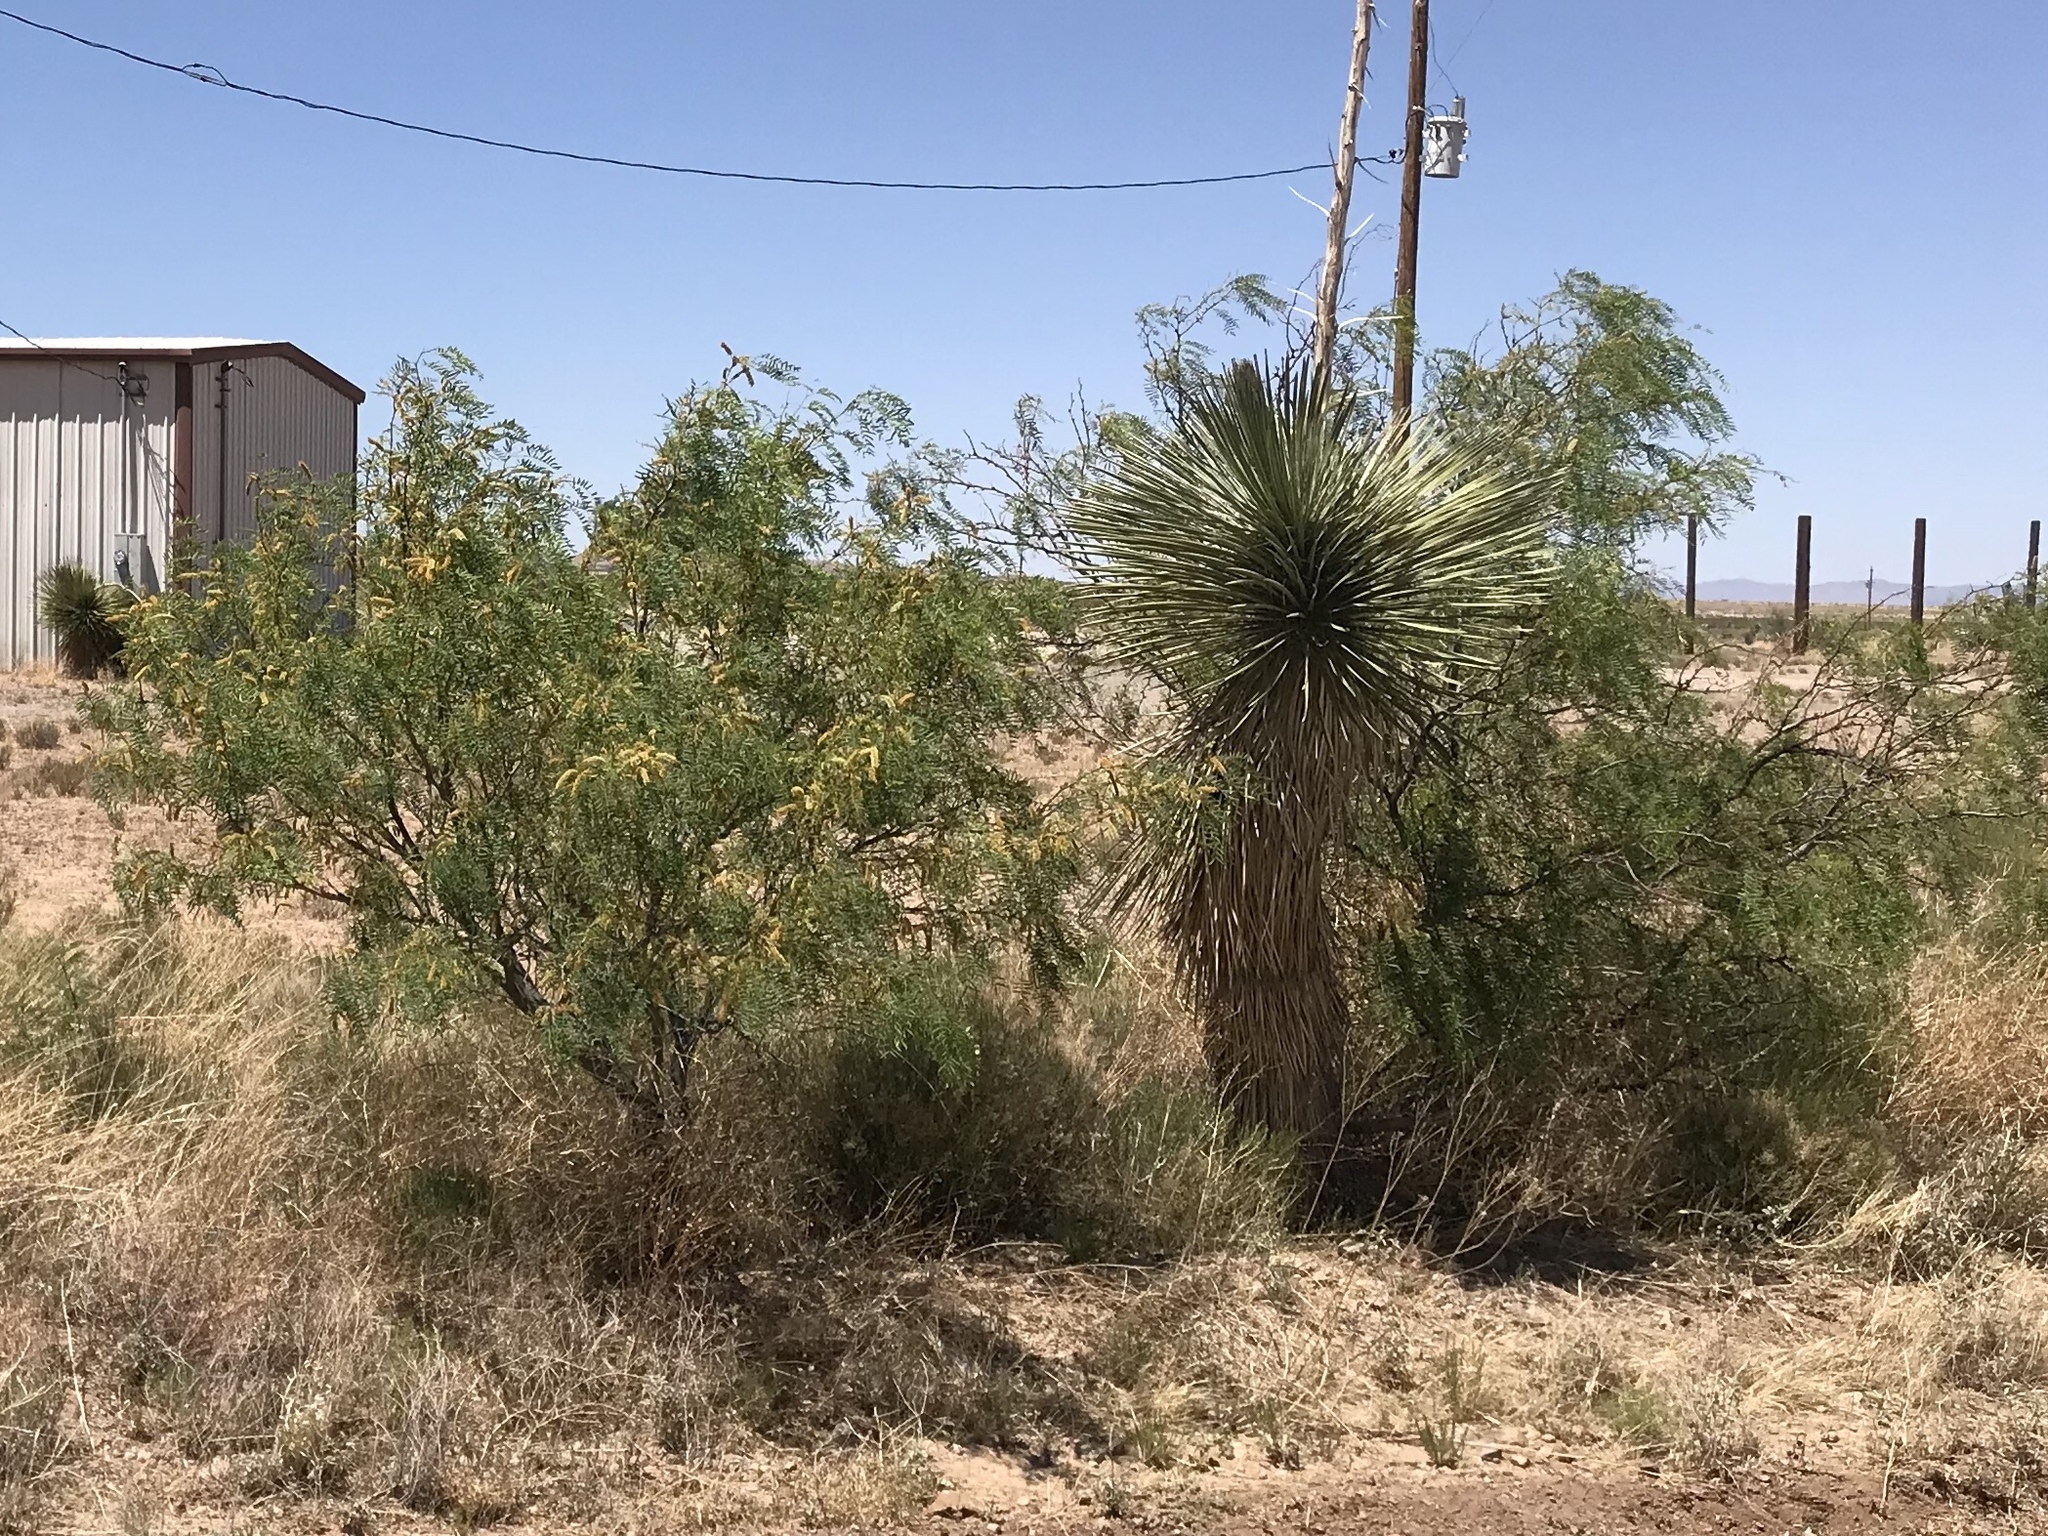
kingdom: Plantae
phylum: Tracheophyta
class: Magnoliopsida
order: Fabales
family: Fabaceae
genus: Prosopis
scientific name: Prosopis glandulosa
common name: Honey mesquite
